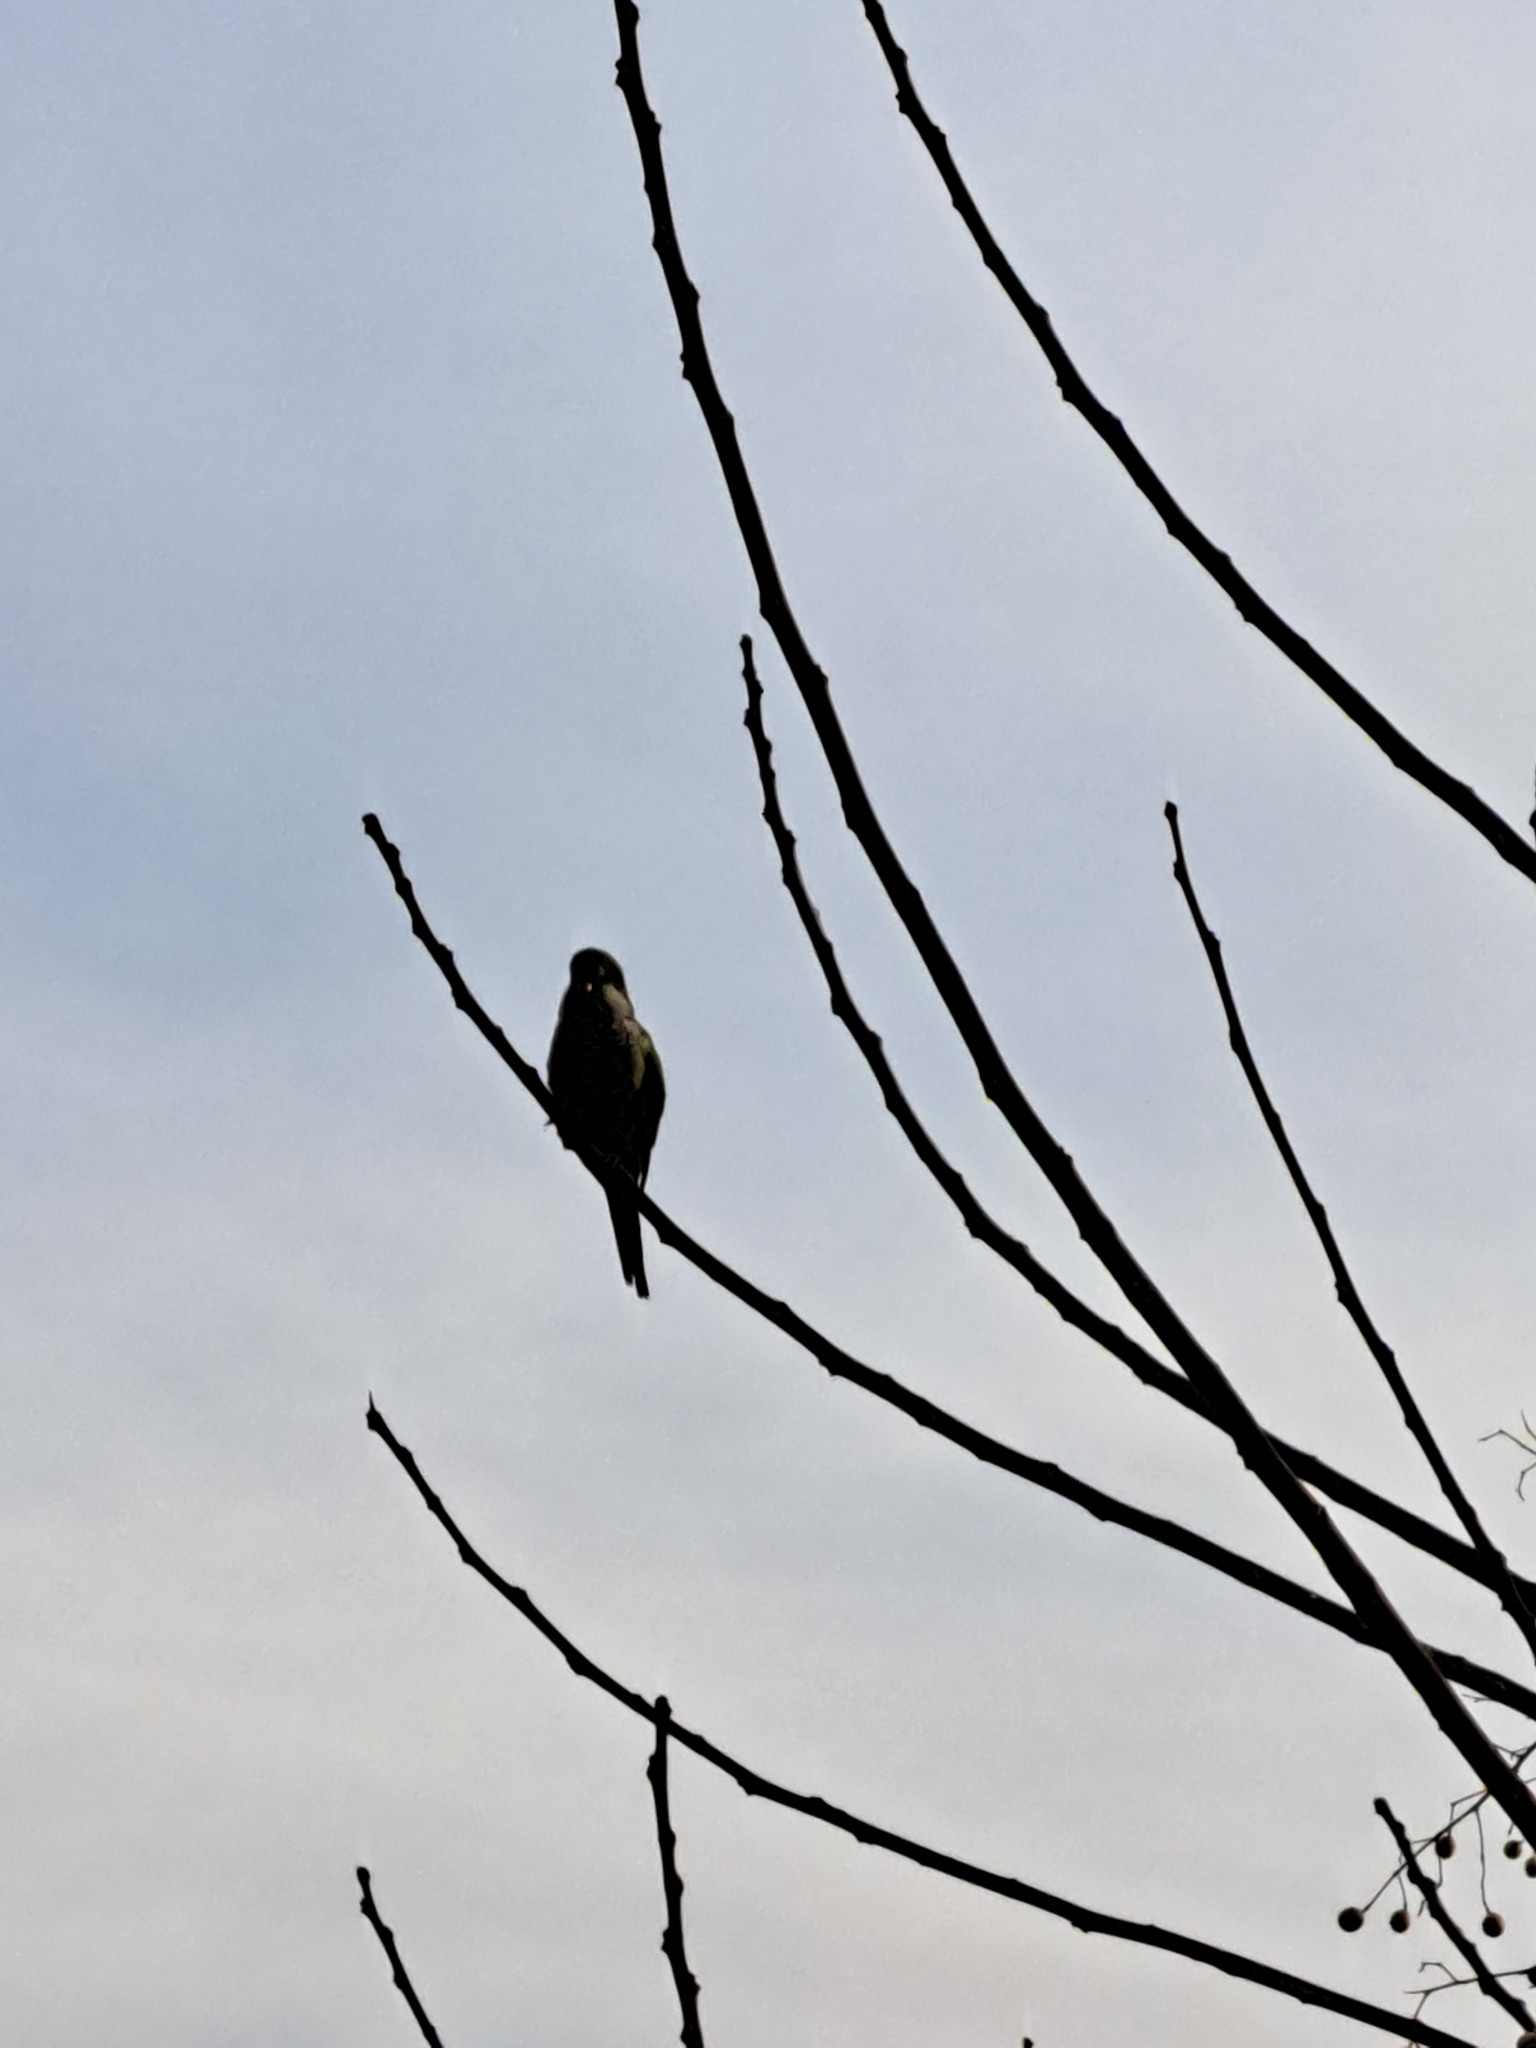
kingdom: Animalia
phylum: Chordata
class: Aves
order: Psittaciformes
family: Psittacidae
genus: Myiopsitta
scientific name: Myiopsitta monachus
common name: Monk parakeet
